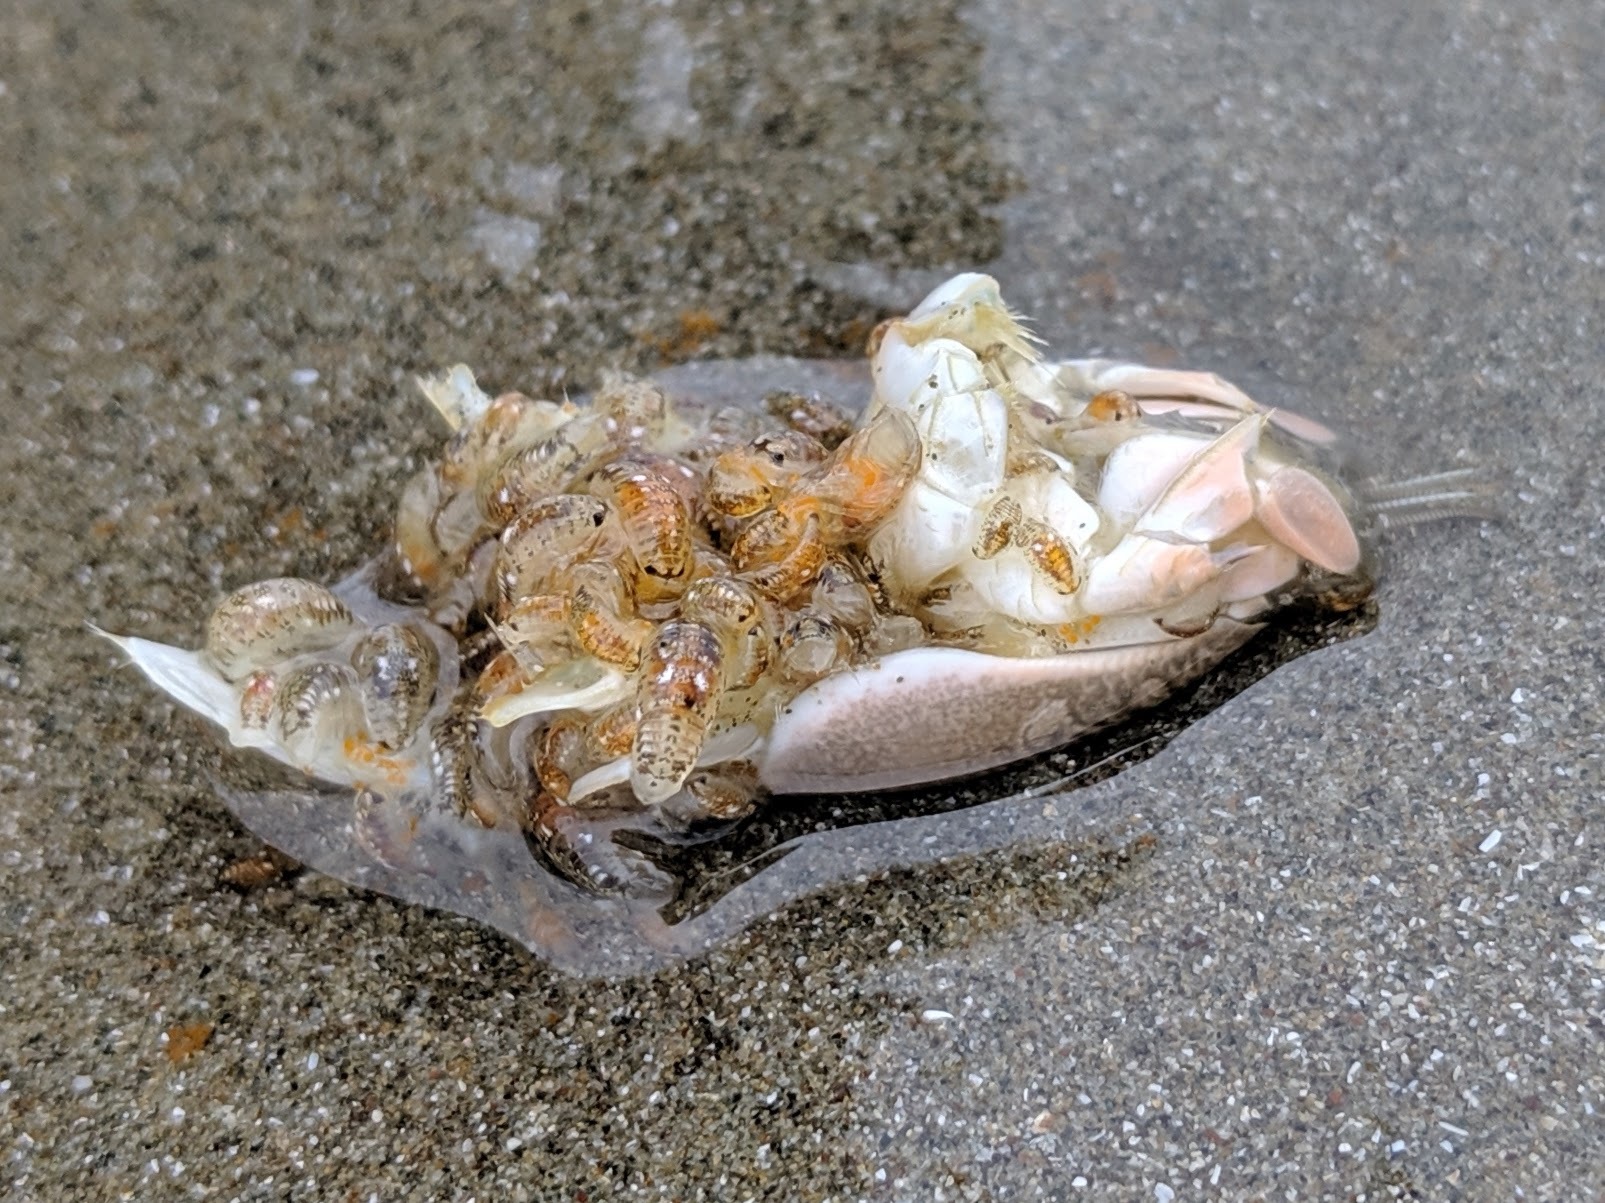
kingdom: Animalia
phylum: Arthropoda
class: Malacostraca
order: Decapoda
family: Hippidae
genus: Emerita
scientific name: Emerita analoga
